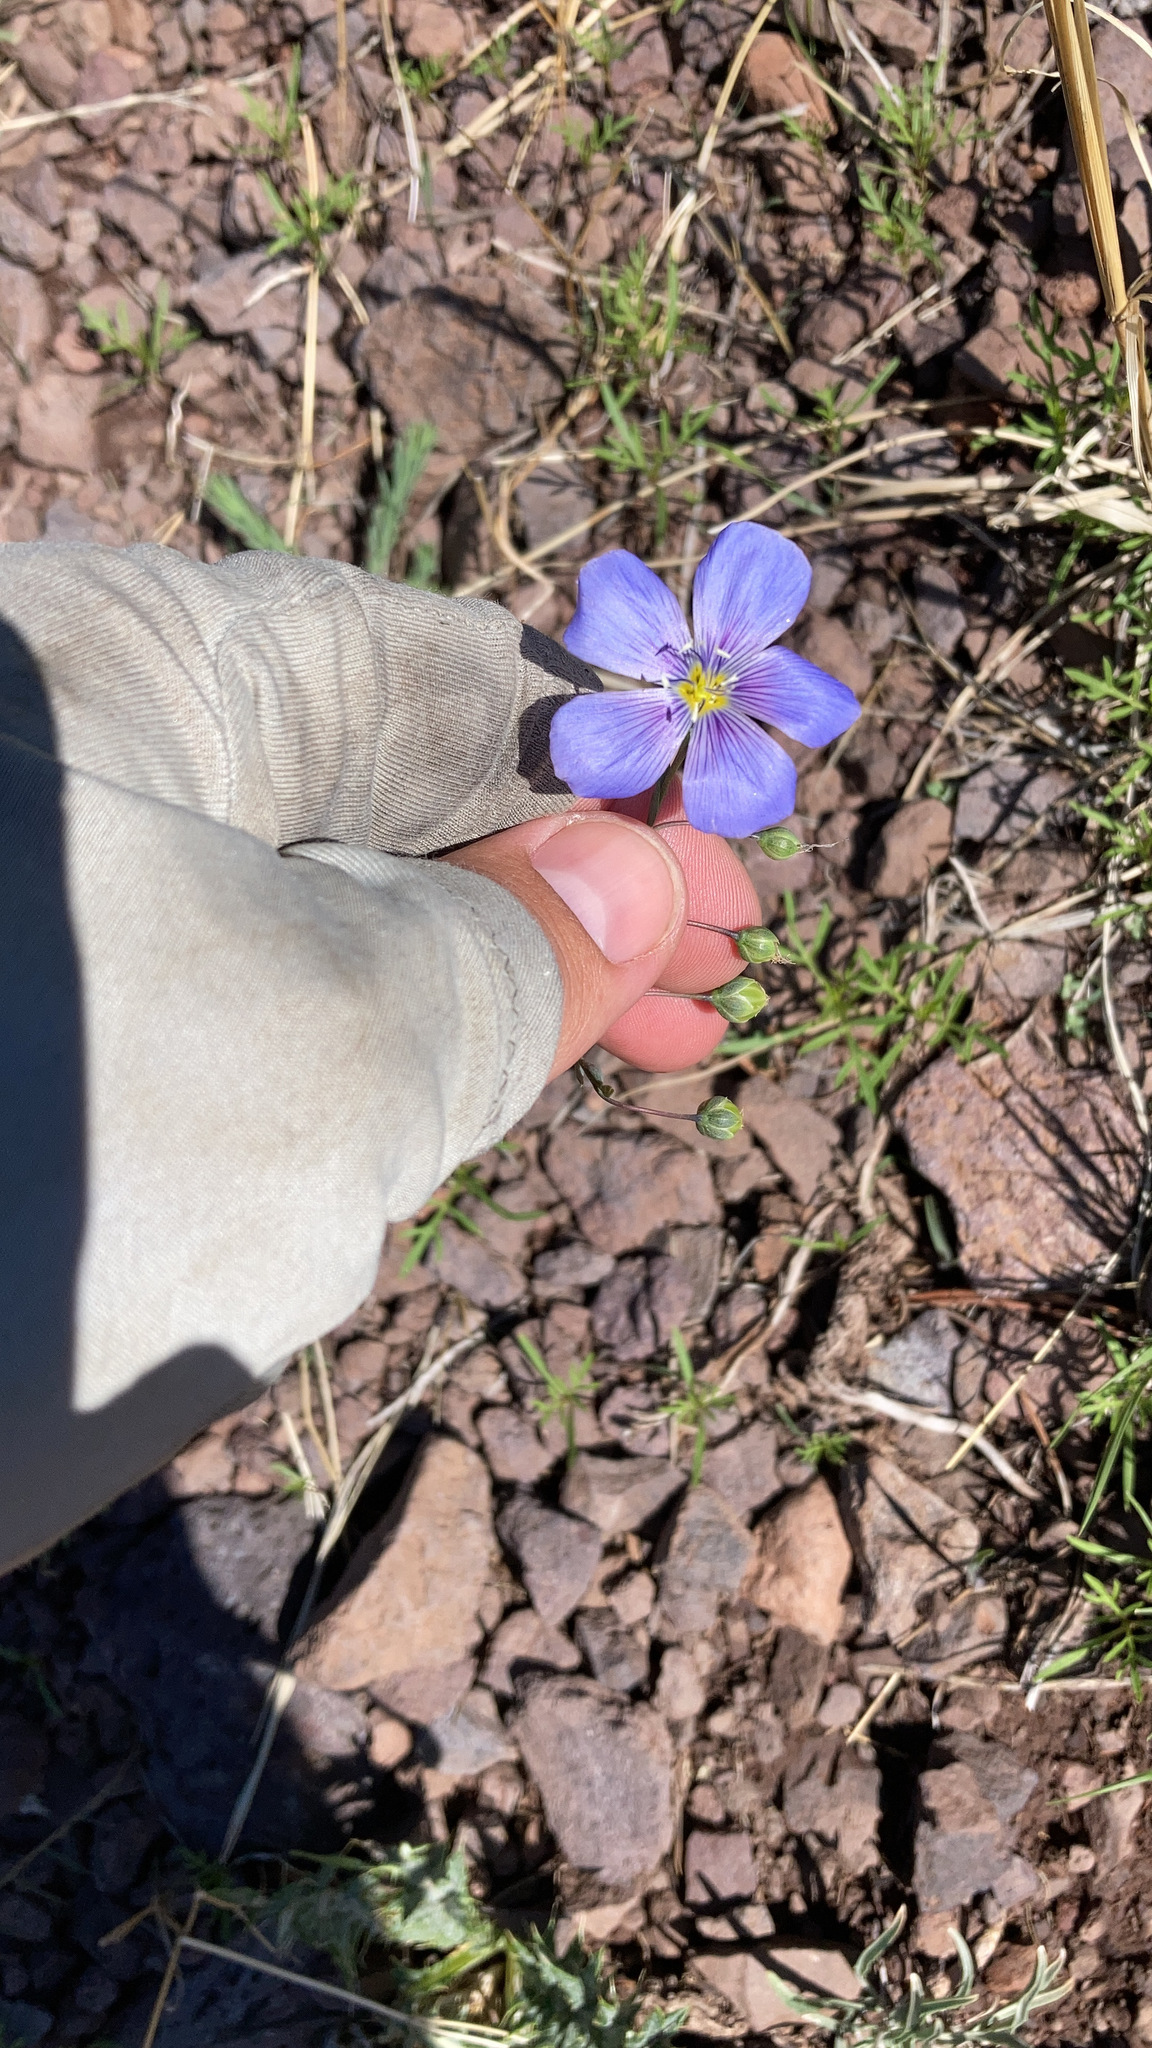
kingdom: Plantae
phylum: Tracheophyta
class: Magnoliopsida
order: Malpighiales
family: Linaceae
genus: Linum
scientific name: Linum lewisii
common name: Prairie flax
